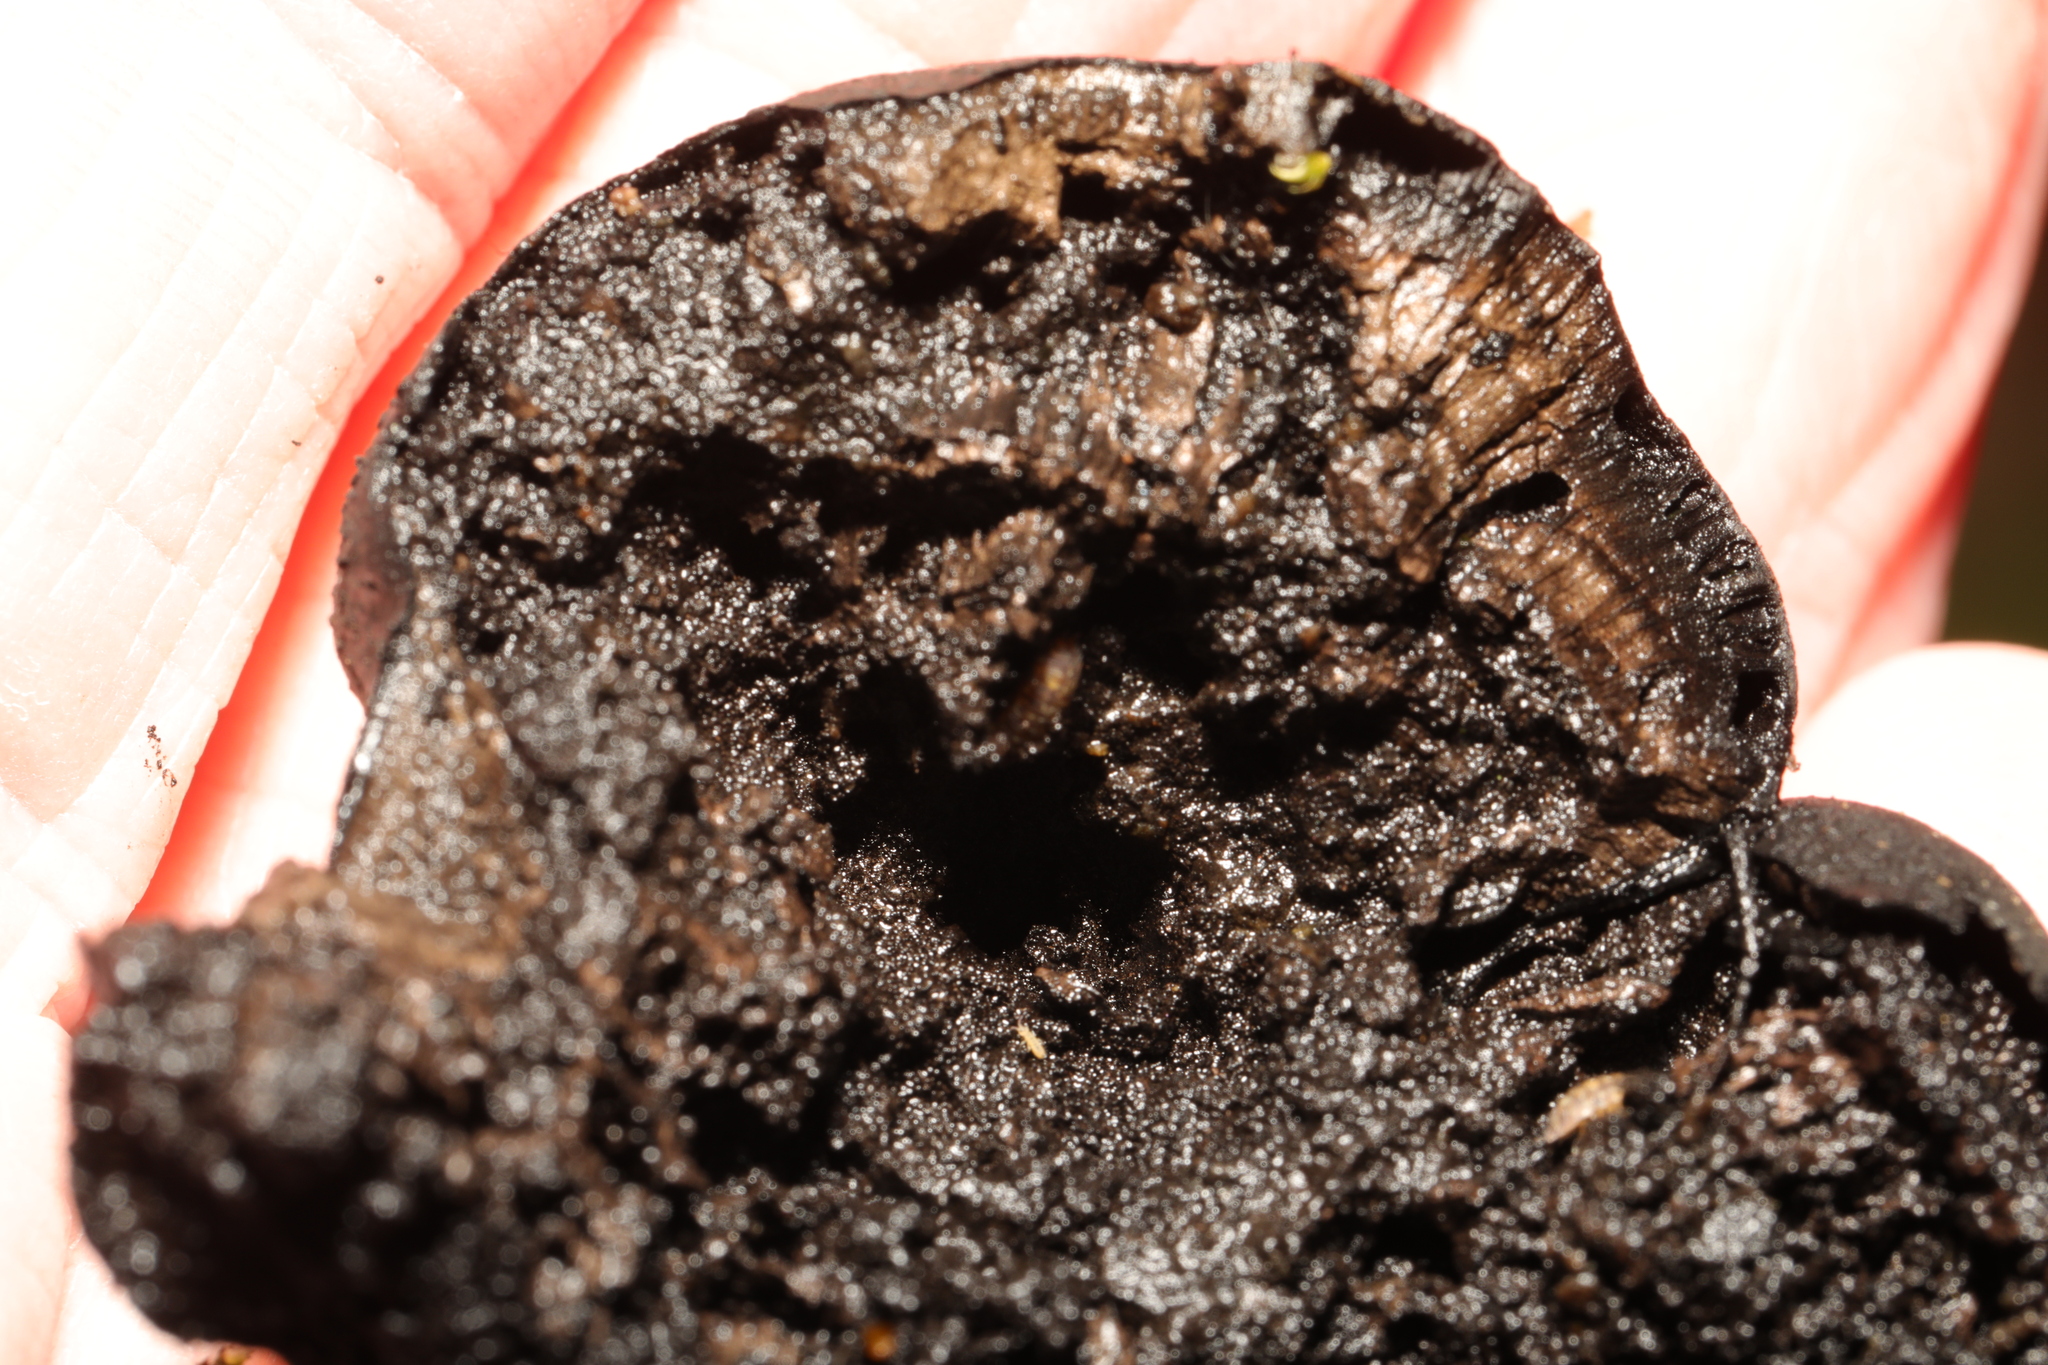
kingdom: Fungi
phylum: Ascomycota
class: Sordariomycetes
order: Xylariales
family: Hypoxylaceae
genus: Daldinia
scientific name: Daldinia concentrica
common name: Cramp balls
